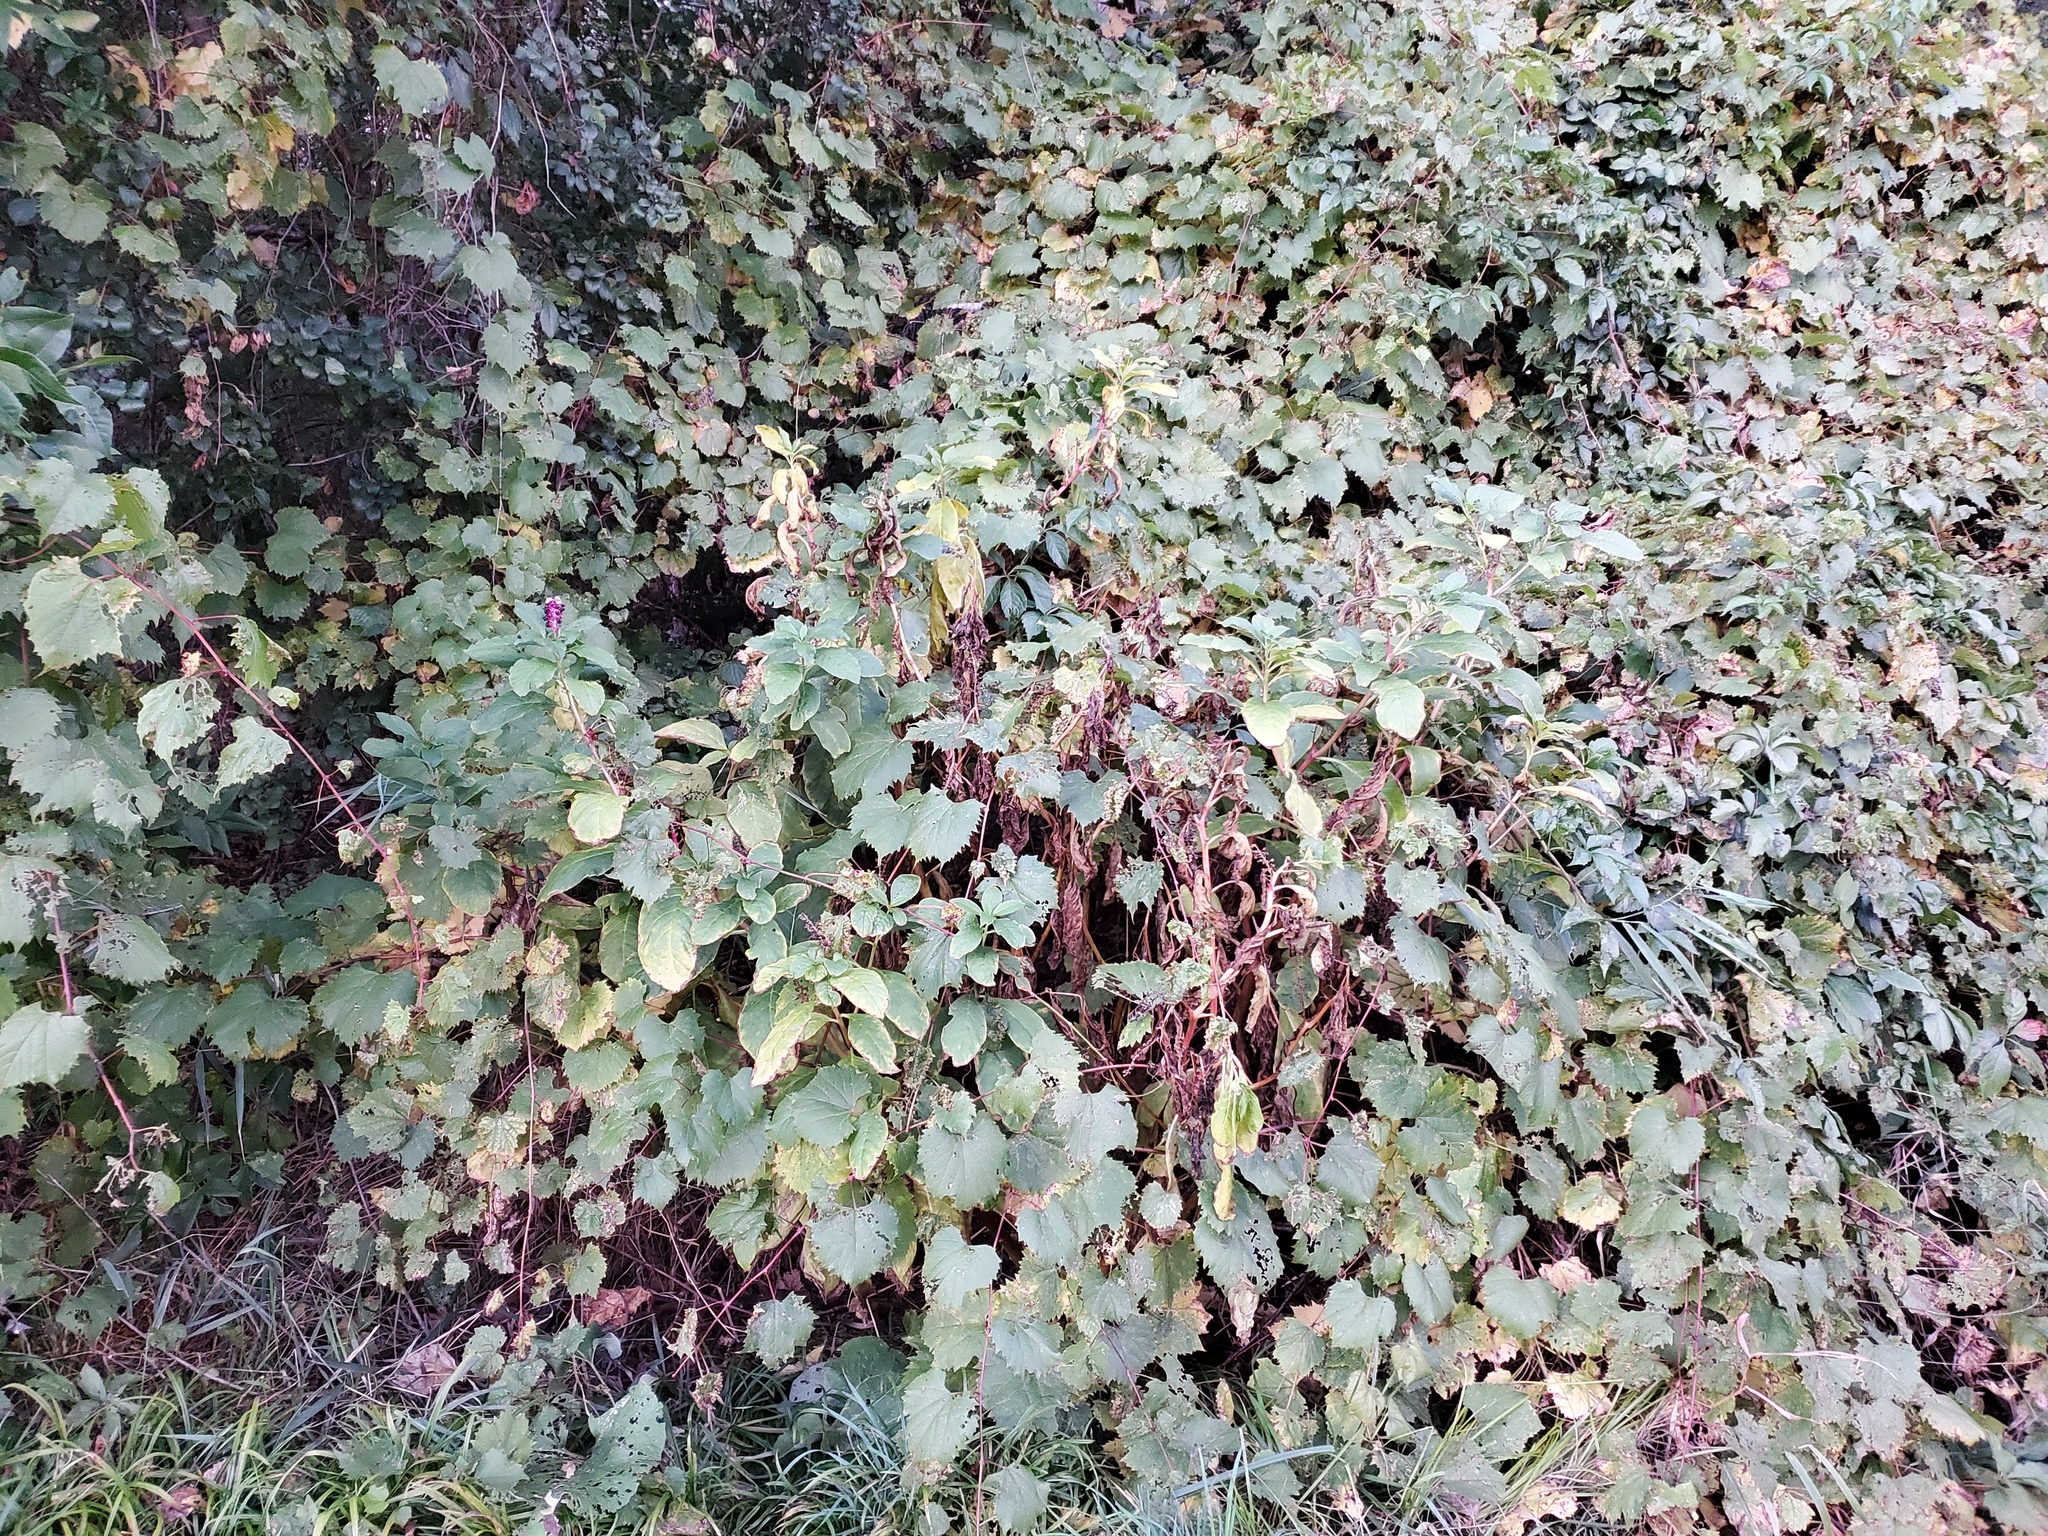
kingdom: Plantae
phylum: Tracheophyta
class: Magnoliopsida
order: Caryophyllales
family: Phytolaccaceae
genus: Phytolacca
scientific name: Phytolacca acinosa
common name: Indian pokeweed
